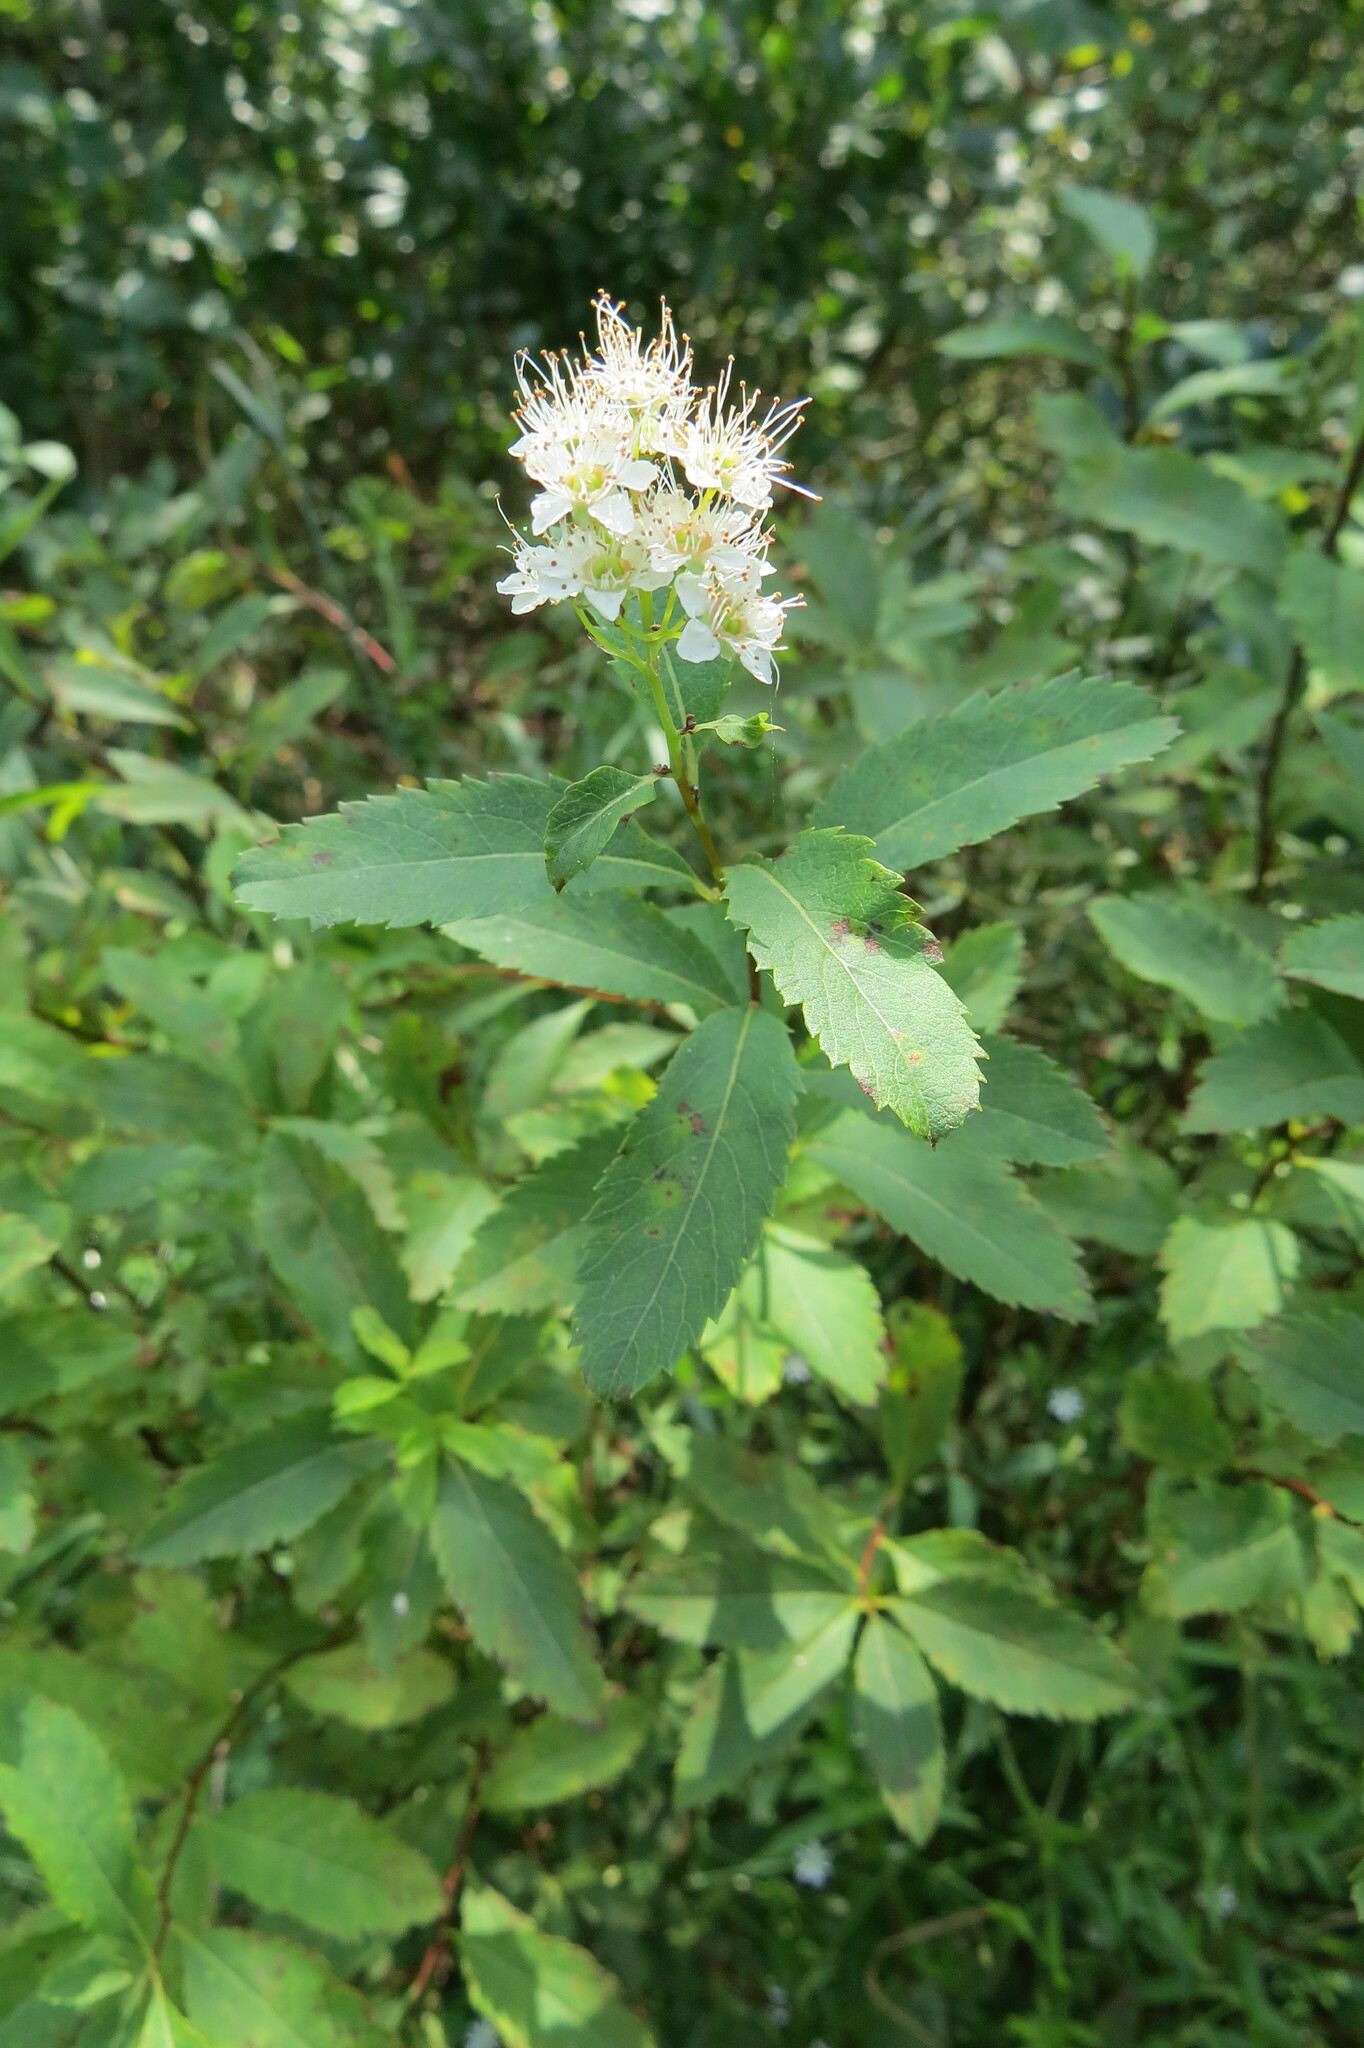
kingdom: Plantae
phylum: Tracheophyta
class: Magnoliopsida
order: Rosales
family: Rosaceae
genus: Spiraea
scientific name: Spiraea alba
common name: Pale bridewort
